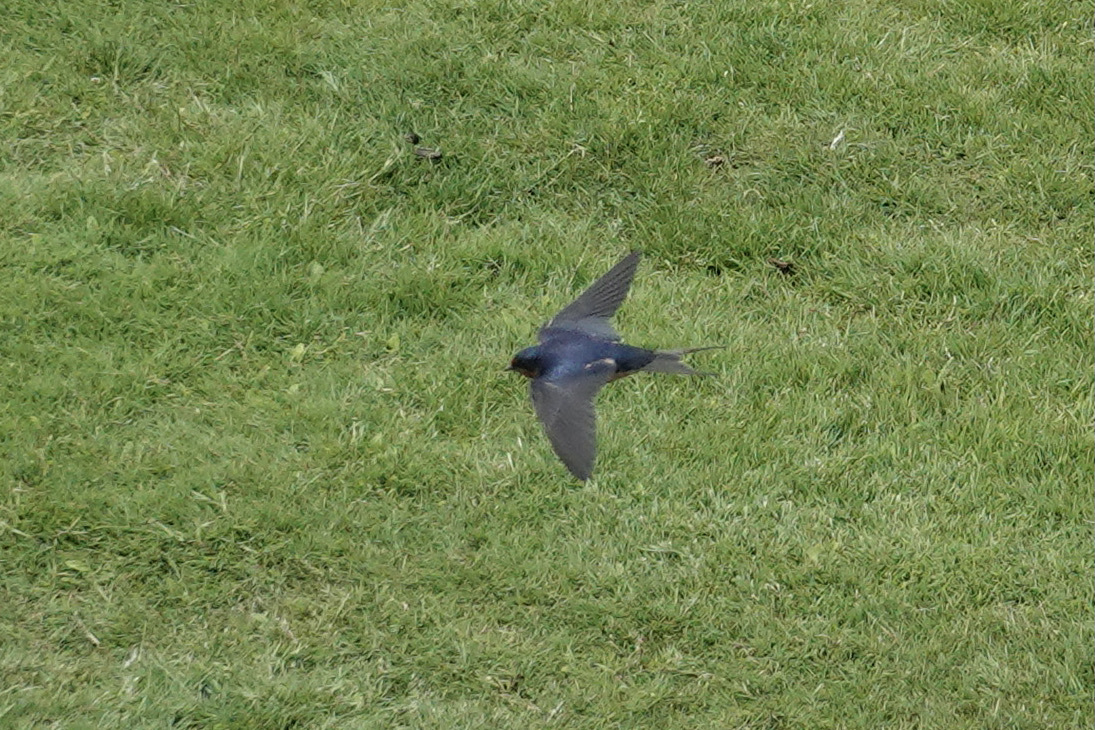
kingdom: Animalia
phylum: Chordata
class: Aves
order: Passeriformes
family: Hirundinidae
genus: Hirundo
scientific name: Hirundo rustica
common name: Barn swallow
